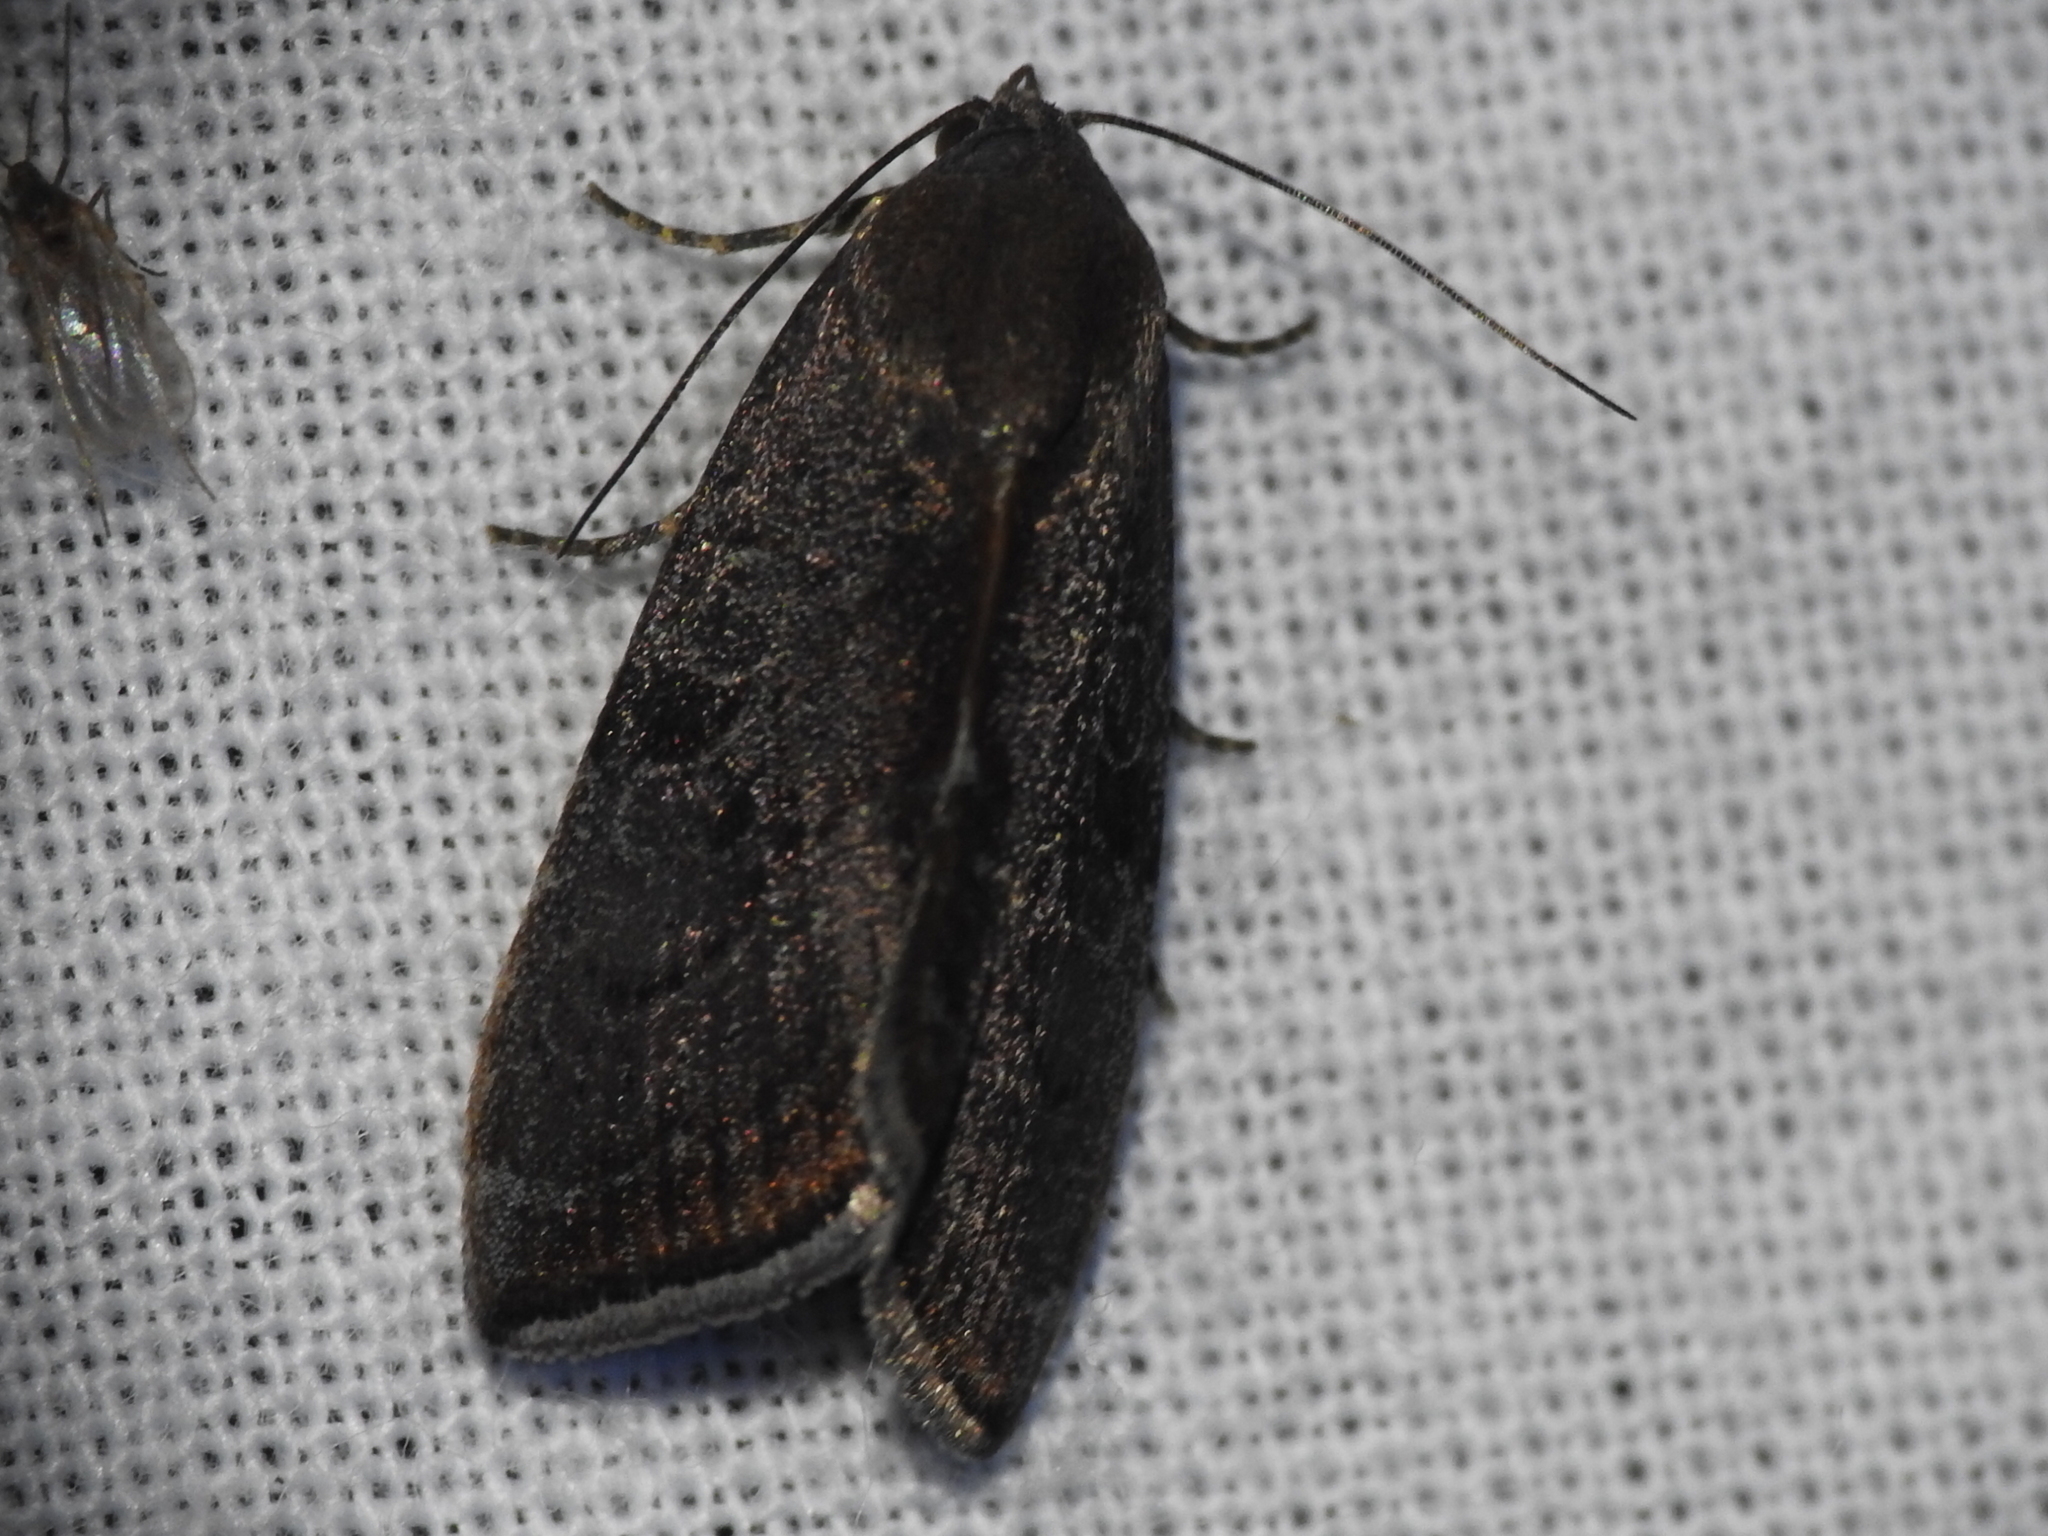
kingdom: Animalia
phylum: Arthropoda
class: Insecta
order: Lepidoptera
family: Noctuidae
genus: Galgula
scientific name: Galgula partita
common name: Wedgeling
